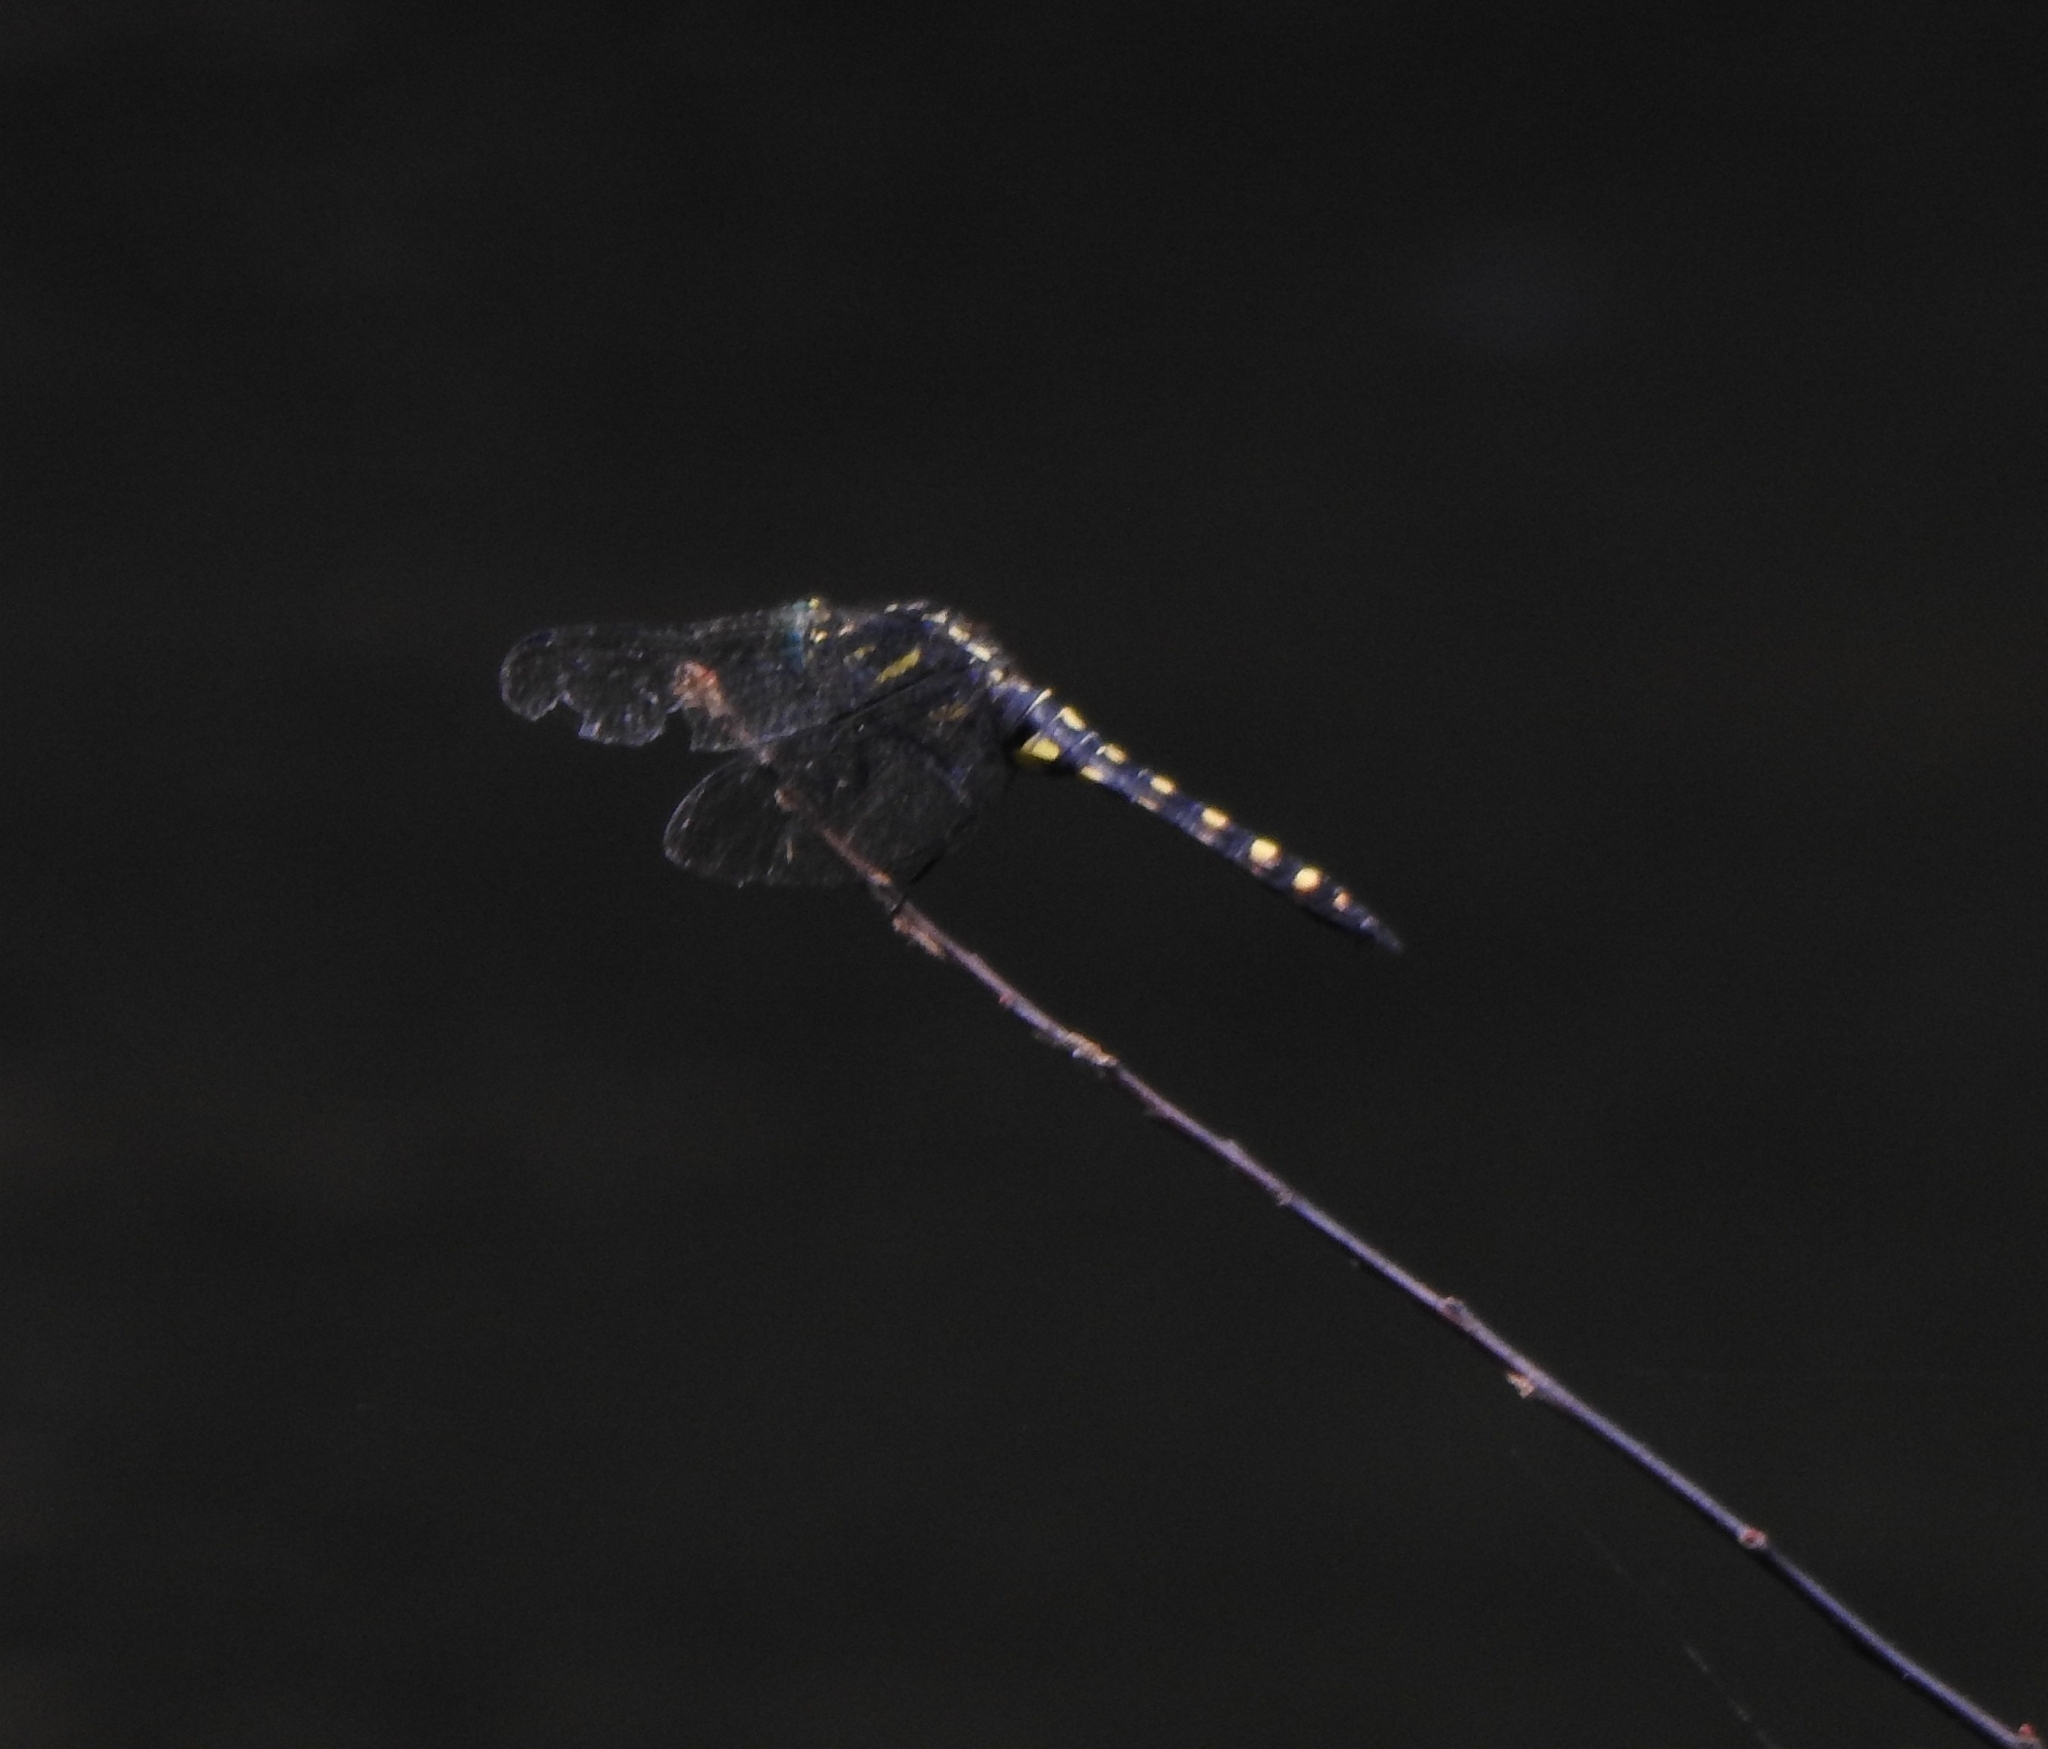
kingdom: Animalia
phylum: Arthropoda
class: Insecta
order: Odonata
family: Libellulidae
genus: Onychothemis
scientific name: Onychothemis testacea
